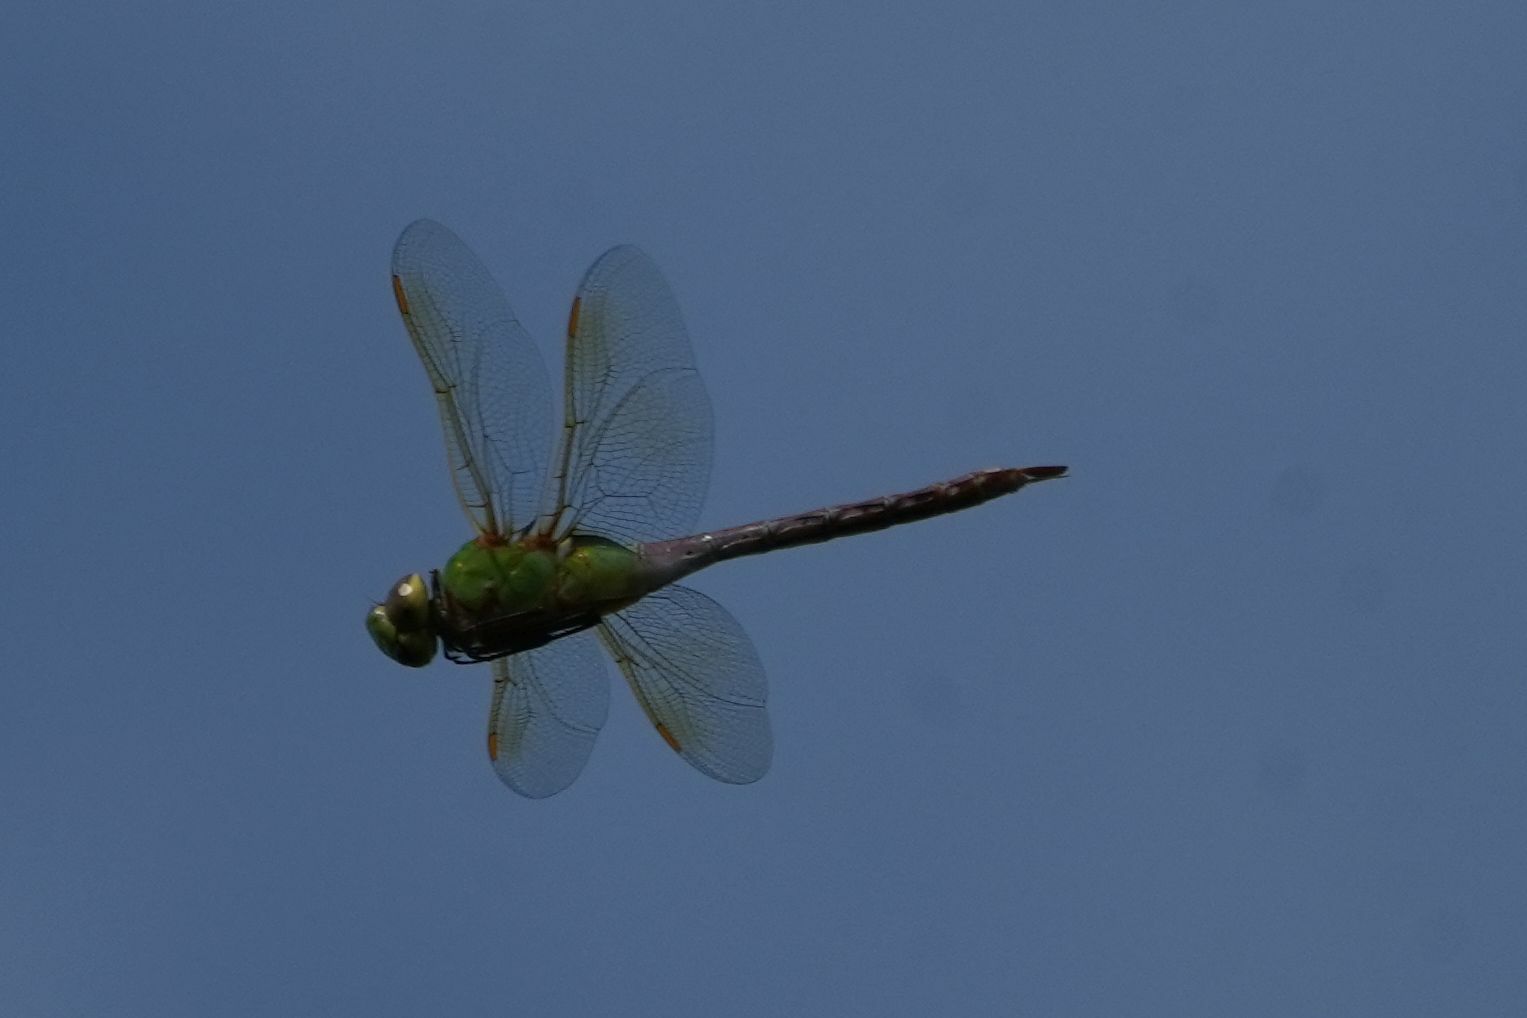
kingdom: Animalia
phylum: Arthropoda
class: Insecta
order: Odonata
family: Aeshnidae
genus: Anax
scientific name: Anax junius
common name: Common green darner
